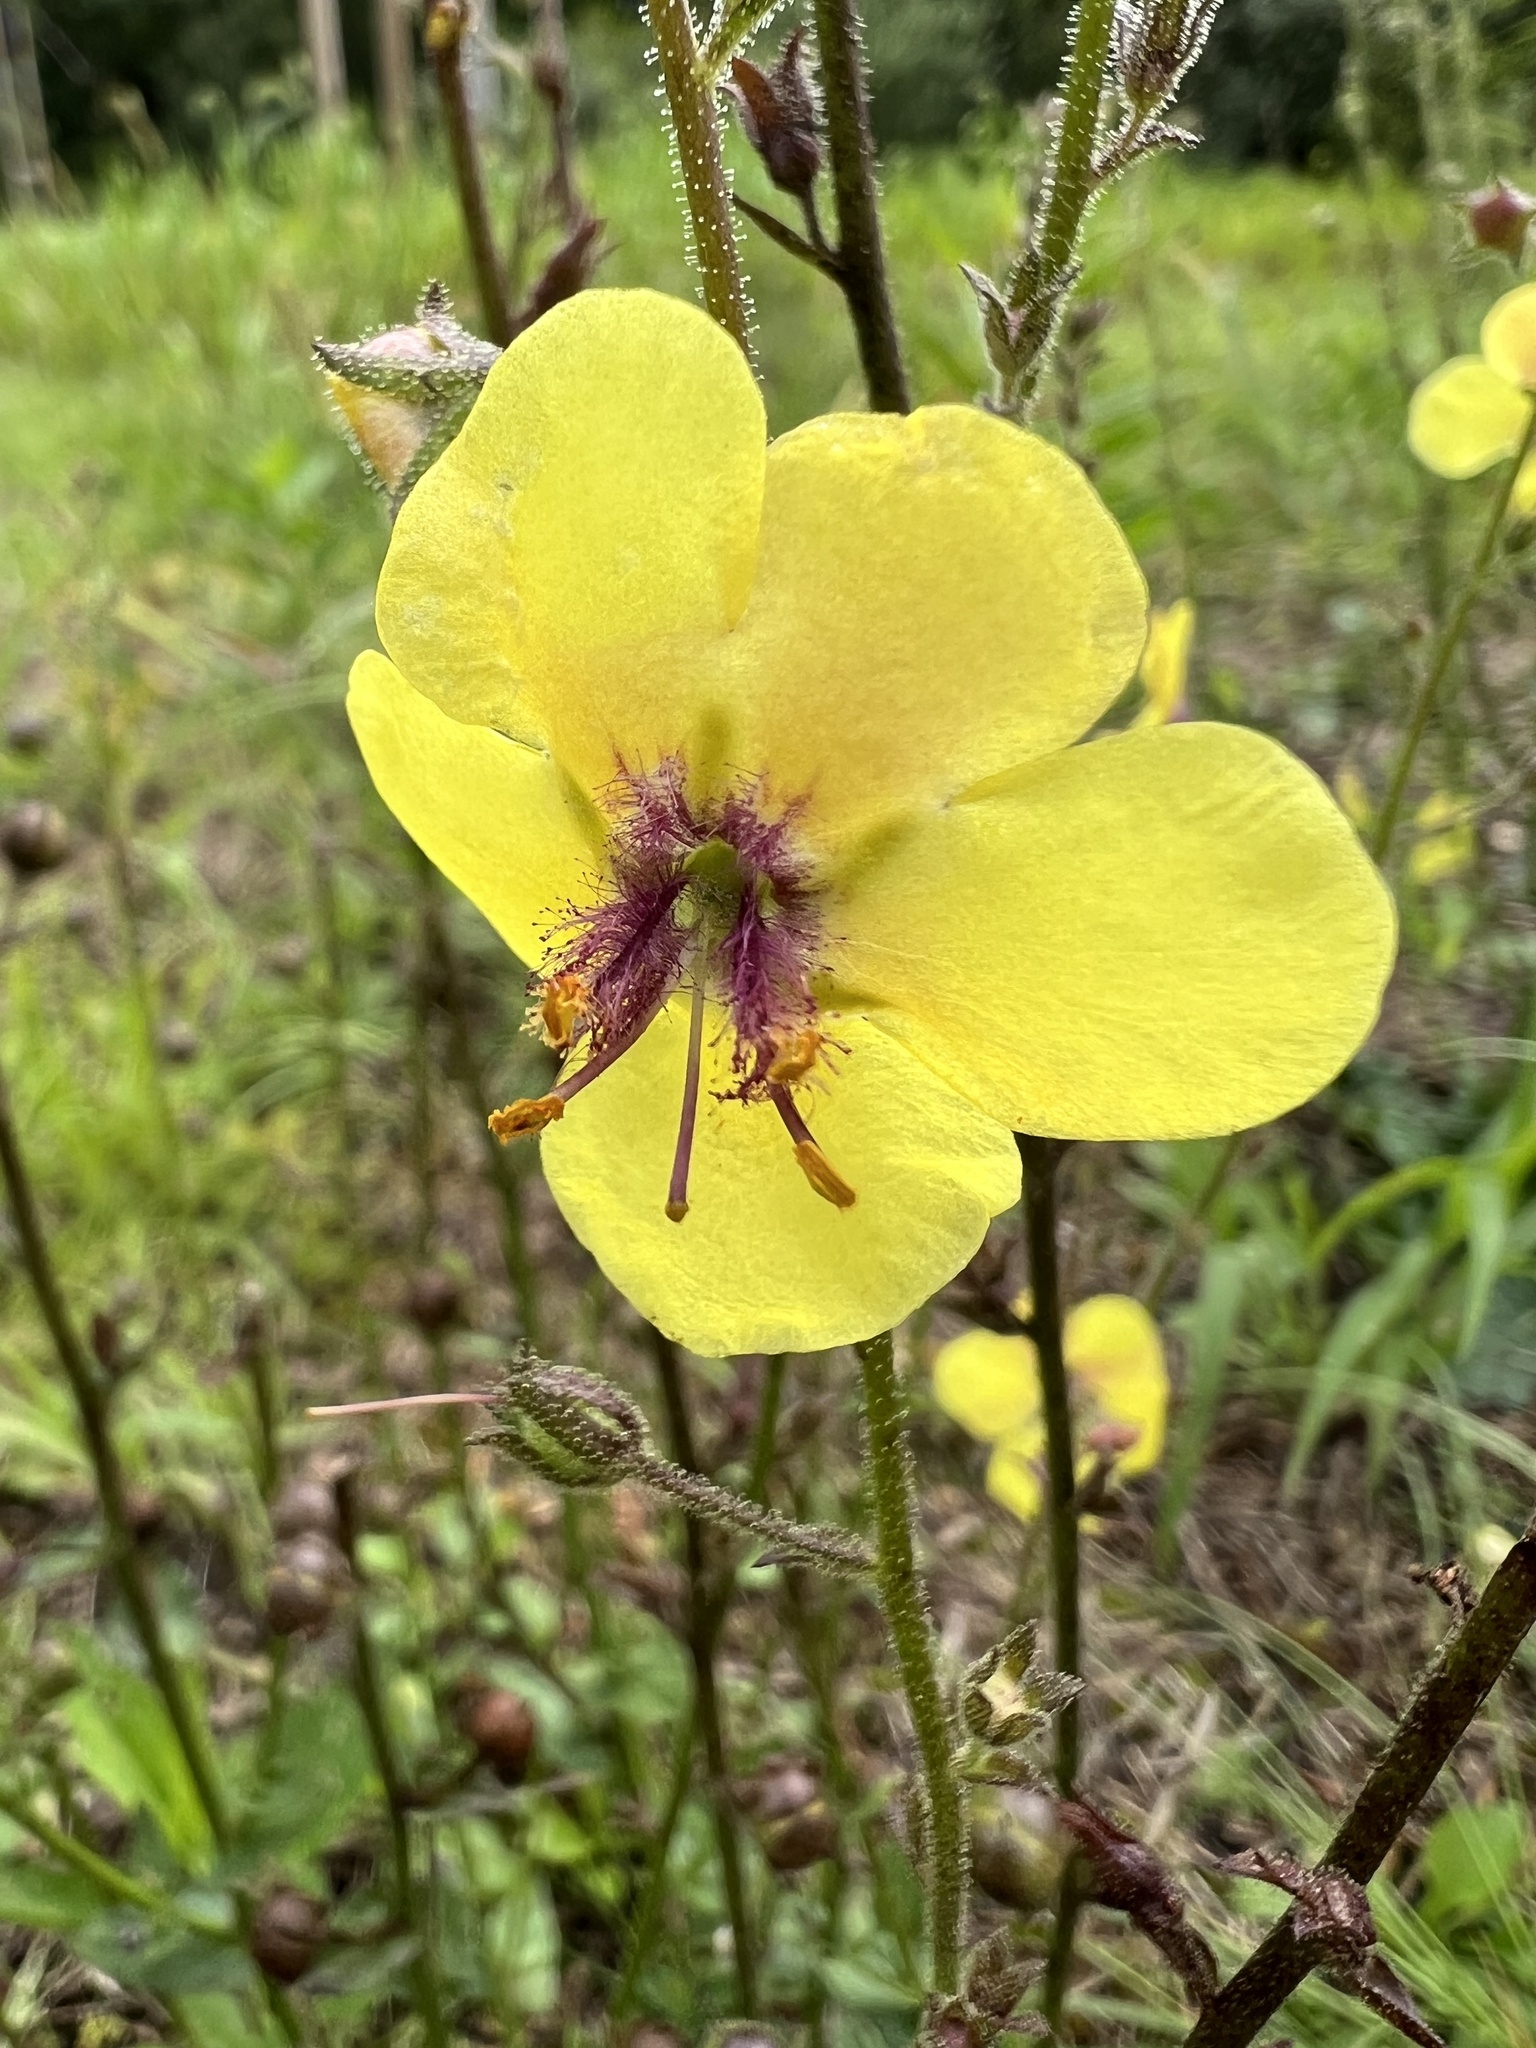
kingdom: Plantae
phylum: Tracheophyta
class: Magnoliopsida
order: Lamiales
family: Scrophulariaceae
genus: Verbascum
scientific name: Verbascum blattaria
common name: Moth mullein
